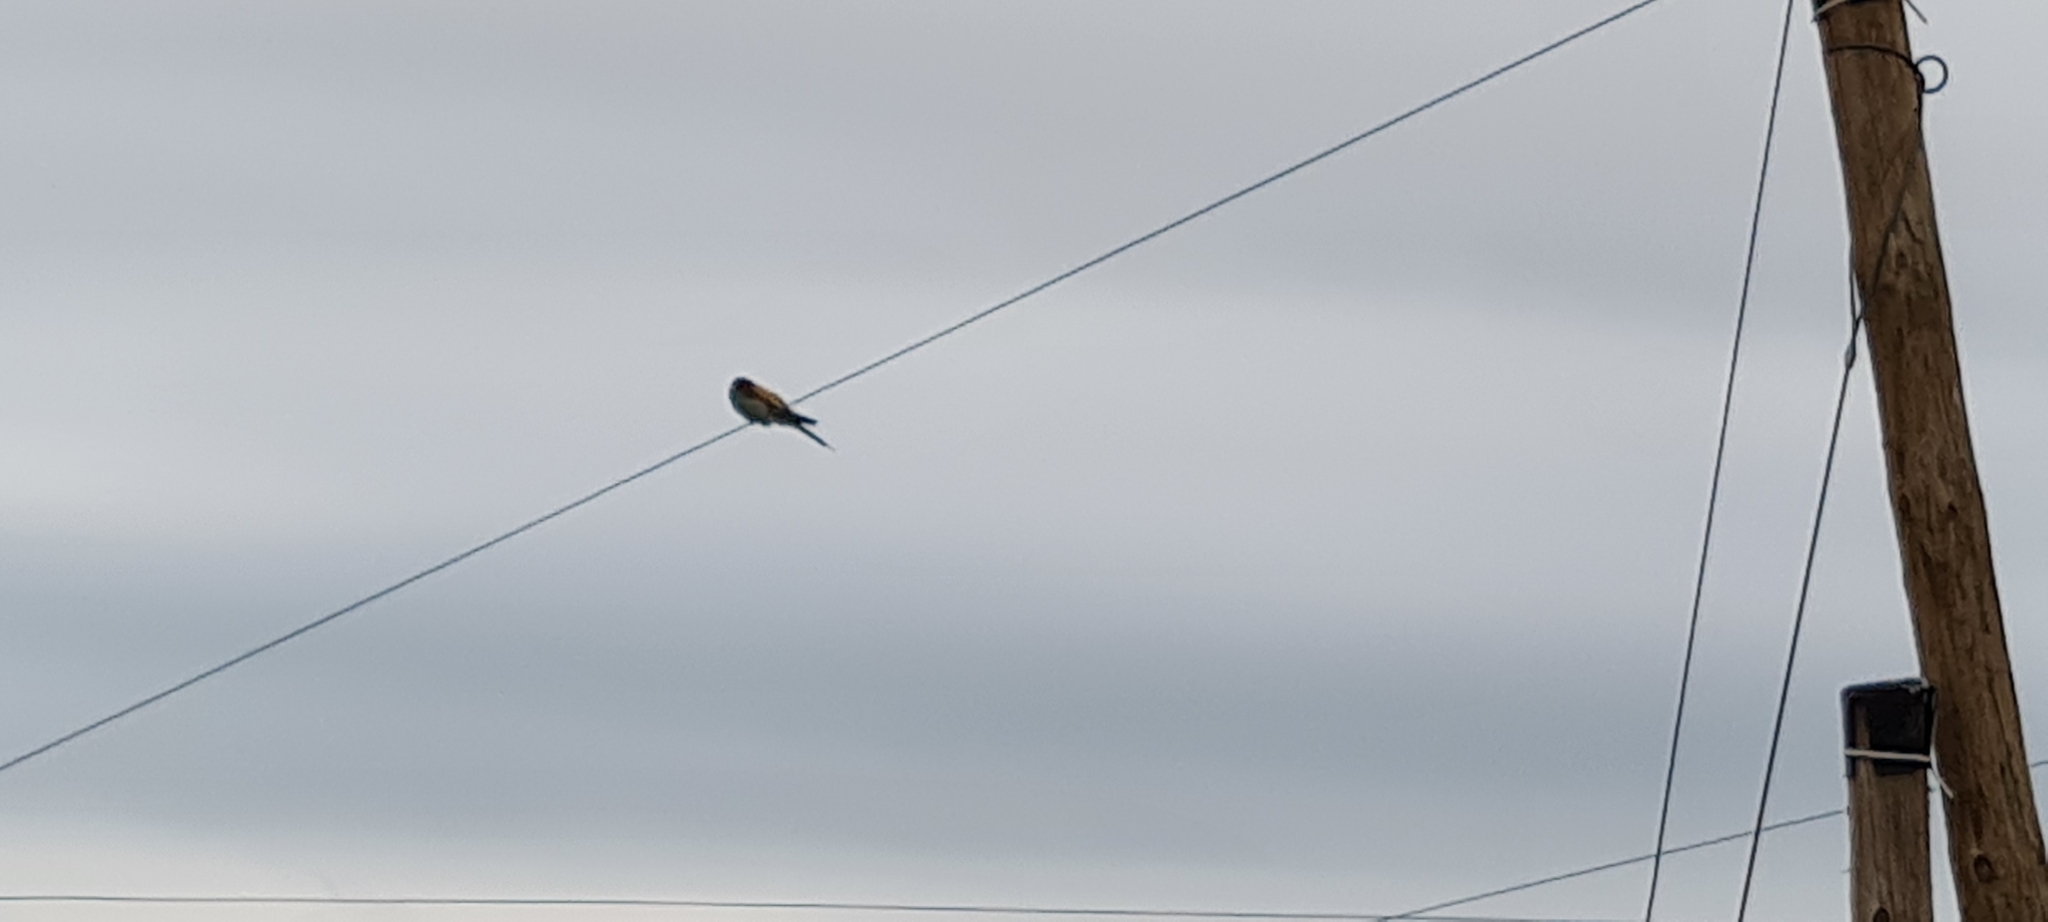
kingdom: Animalia
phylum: Chordata
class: Aves
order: Coraciiformes
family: Meropidae
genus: Merops
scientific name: Merops apiaster
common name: European bee-eater
